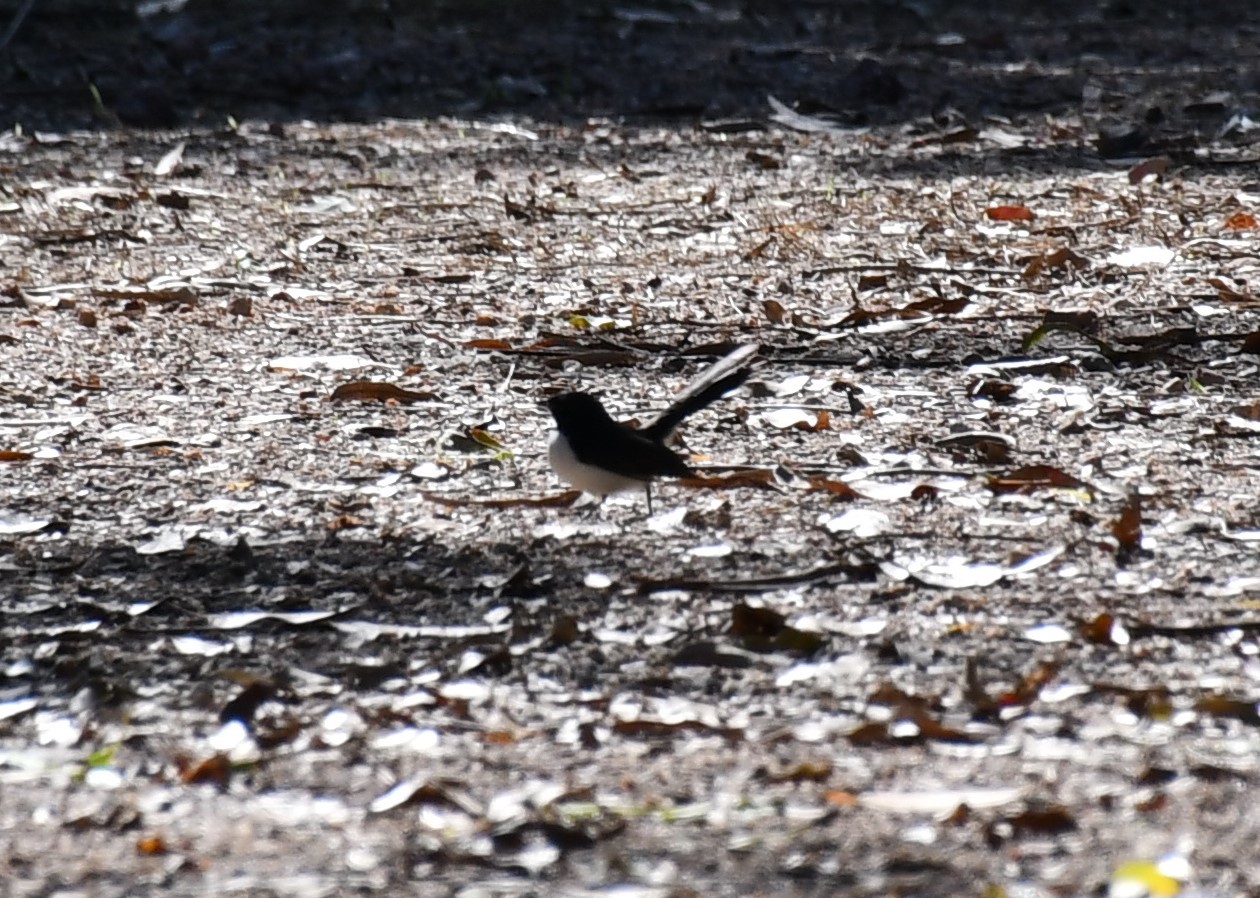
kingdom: Animalia
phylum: Chordata
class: Aves
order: Passeriformes
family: Rhipiduridae
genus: Rhipidura
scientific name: Rhipidura leucophrys
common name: Willie wagtail
